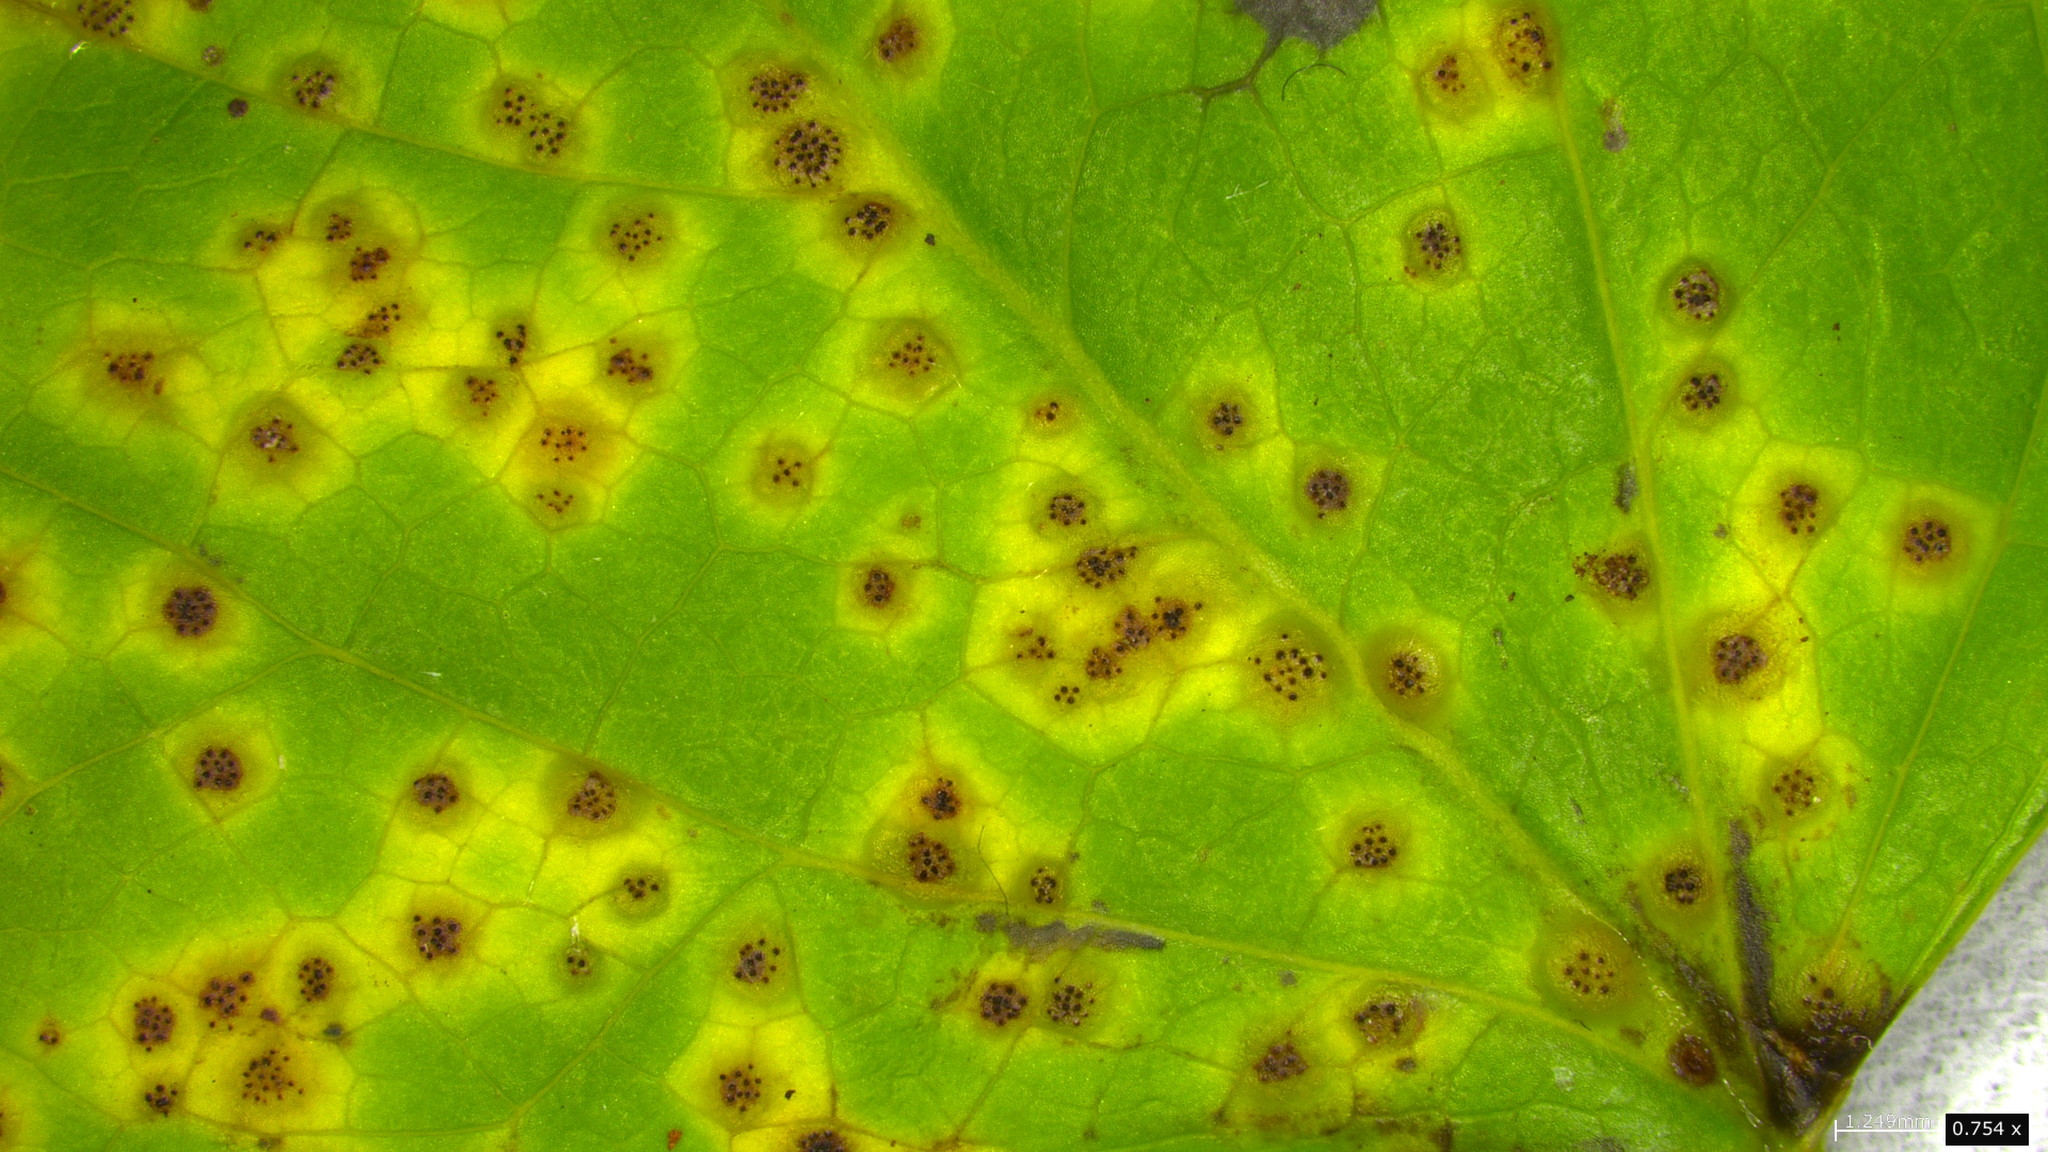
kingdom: Fungi
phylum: Basidiomycota
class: Pucciniomycetes
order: Pucciniales
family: Pucciniaceae
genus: Puccinia
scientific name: Puccinia cymbiformis
